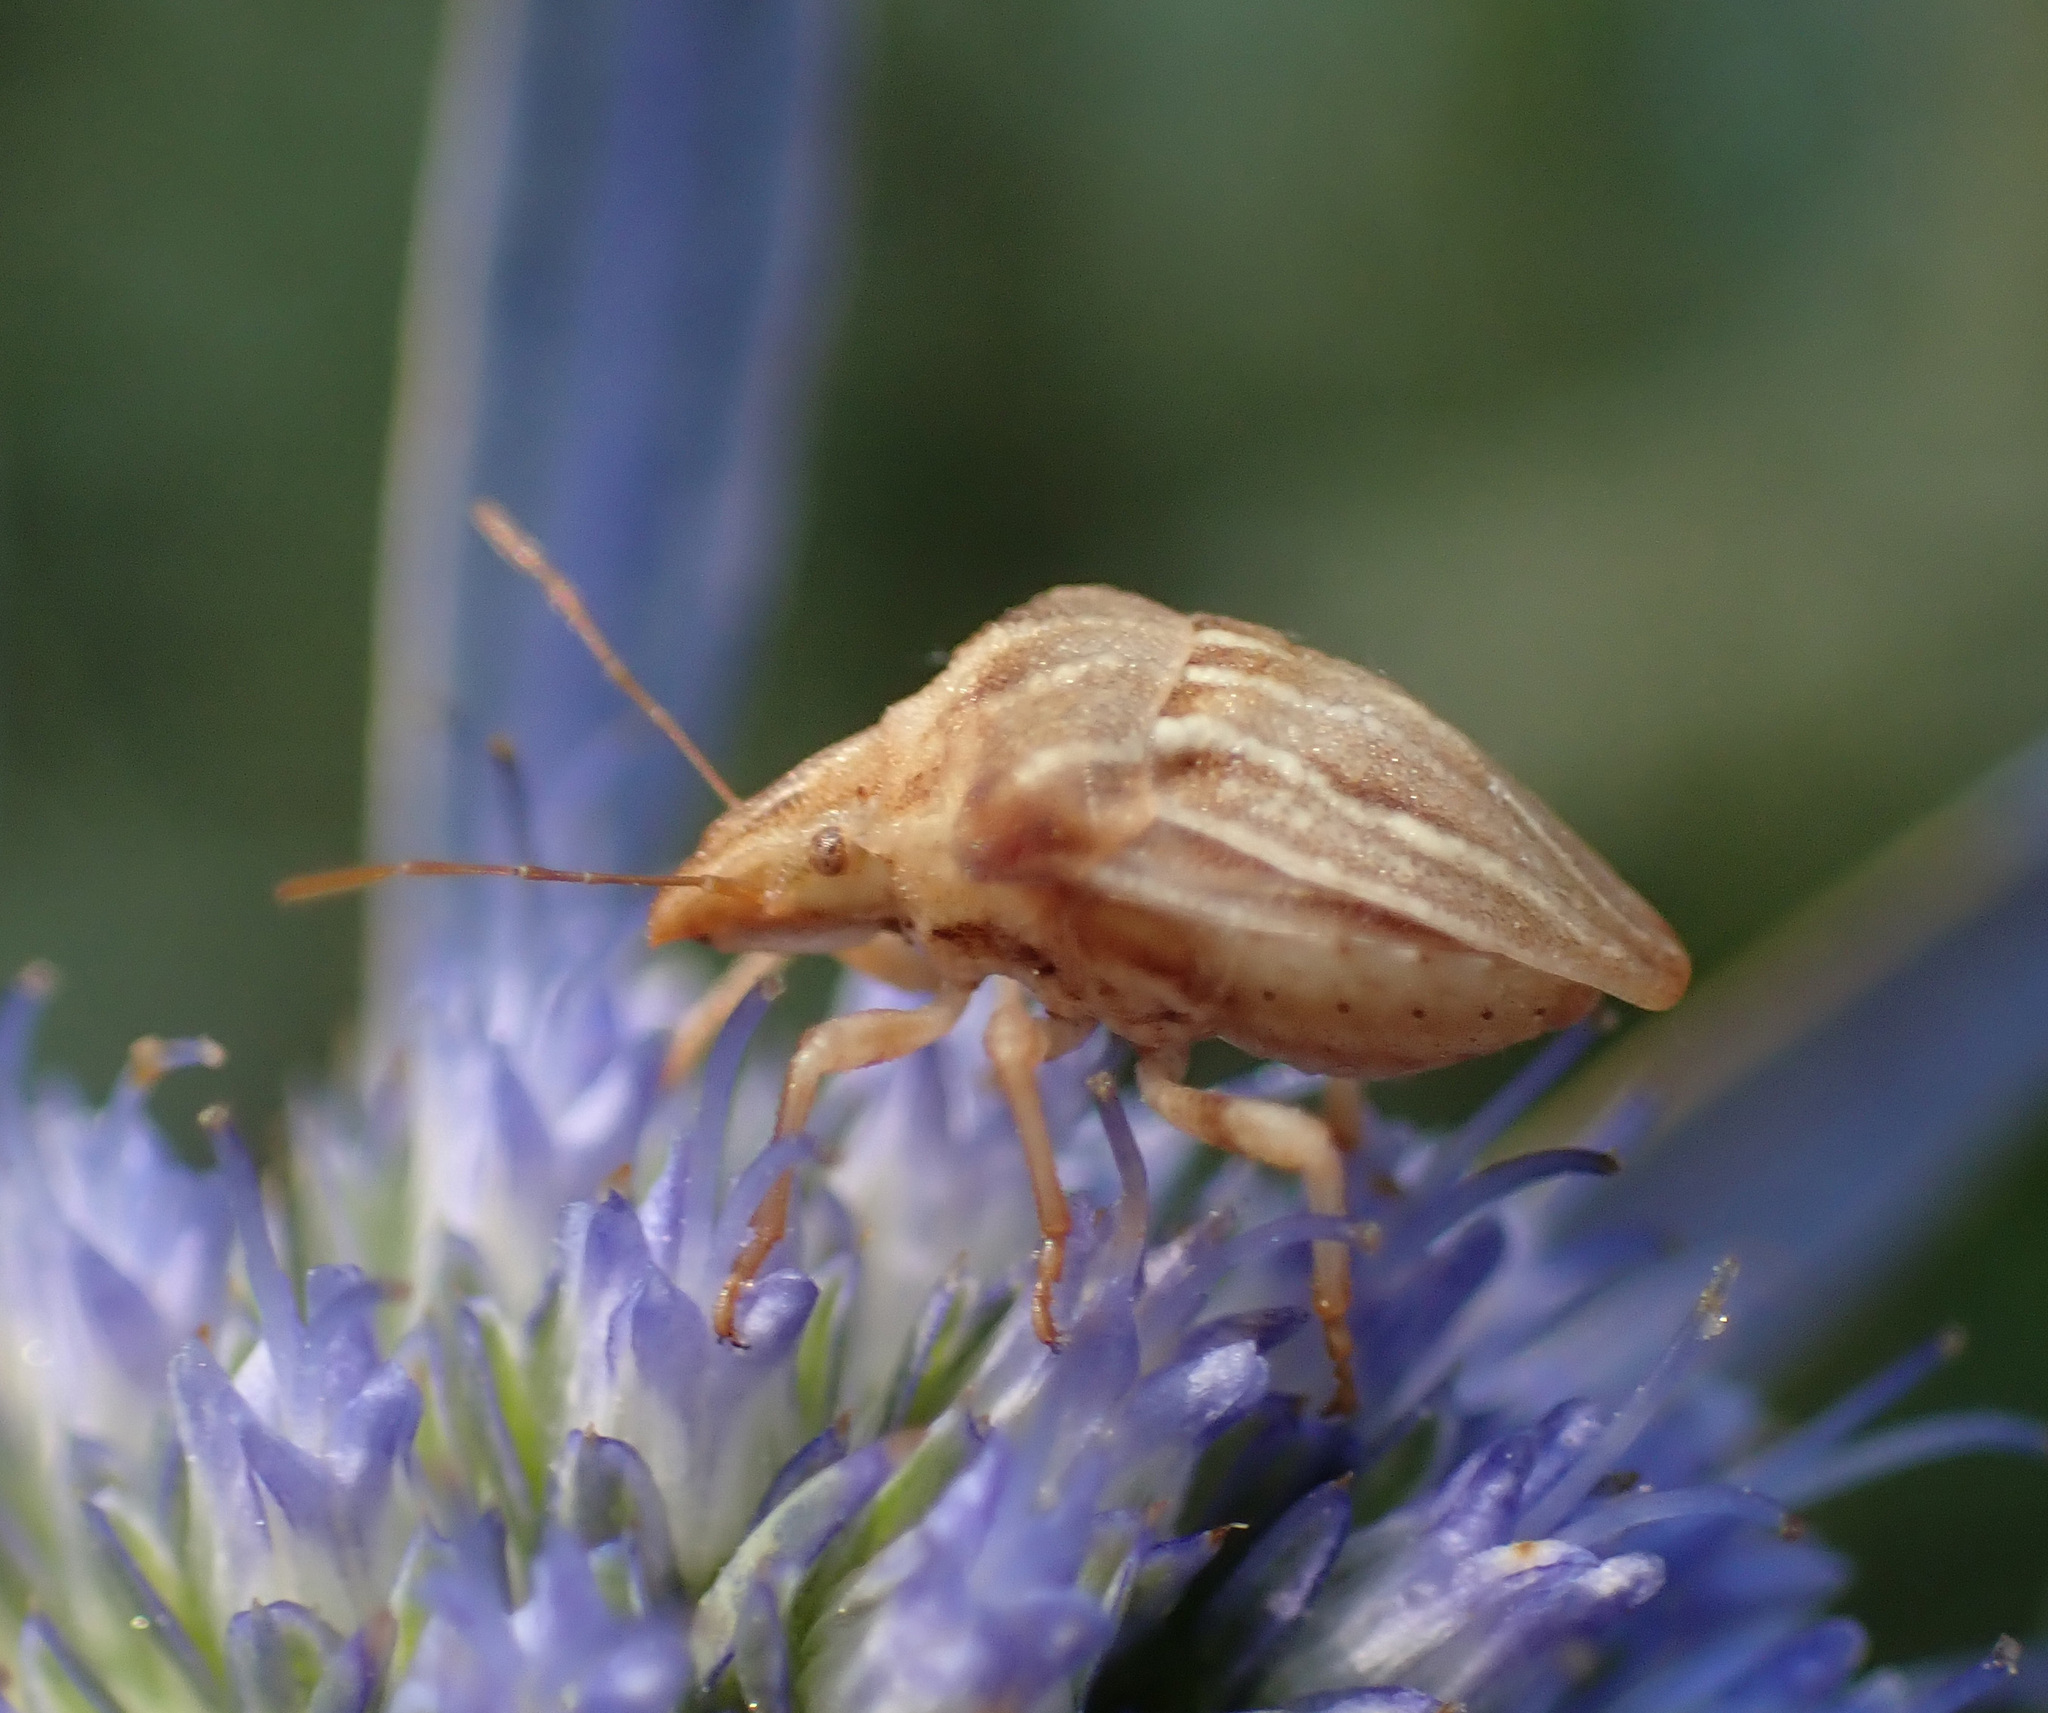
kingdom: Animalia
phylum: Arthropoda
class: Insecta
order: Hemiptera
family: Pentatomidae
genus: Ancyrosoma
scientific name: Ancyrosoma leucogrammes
